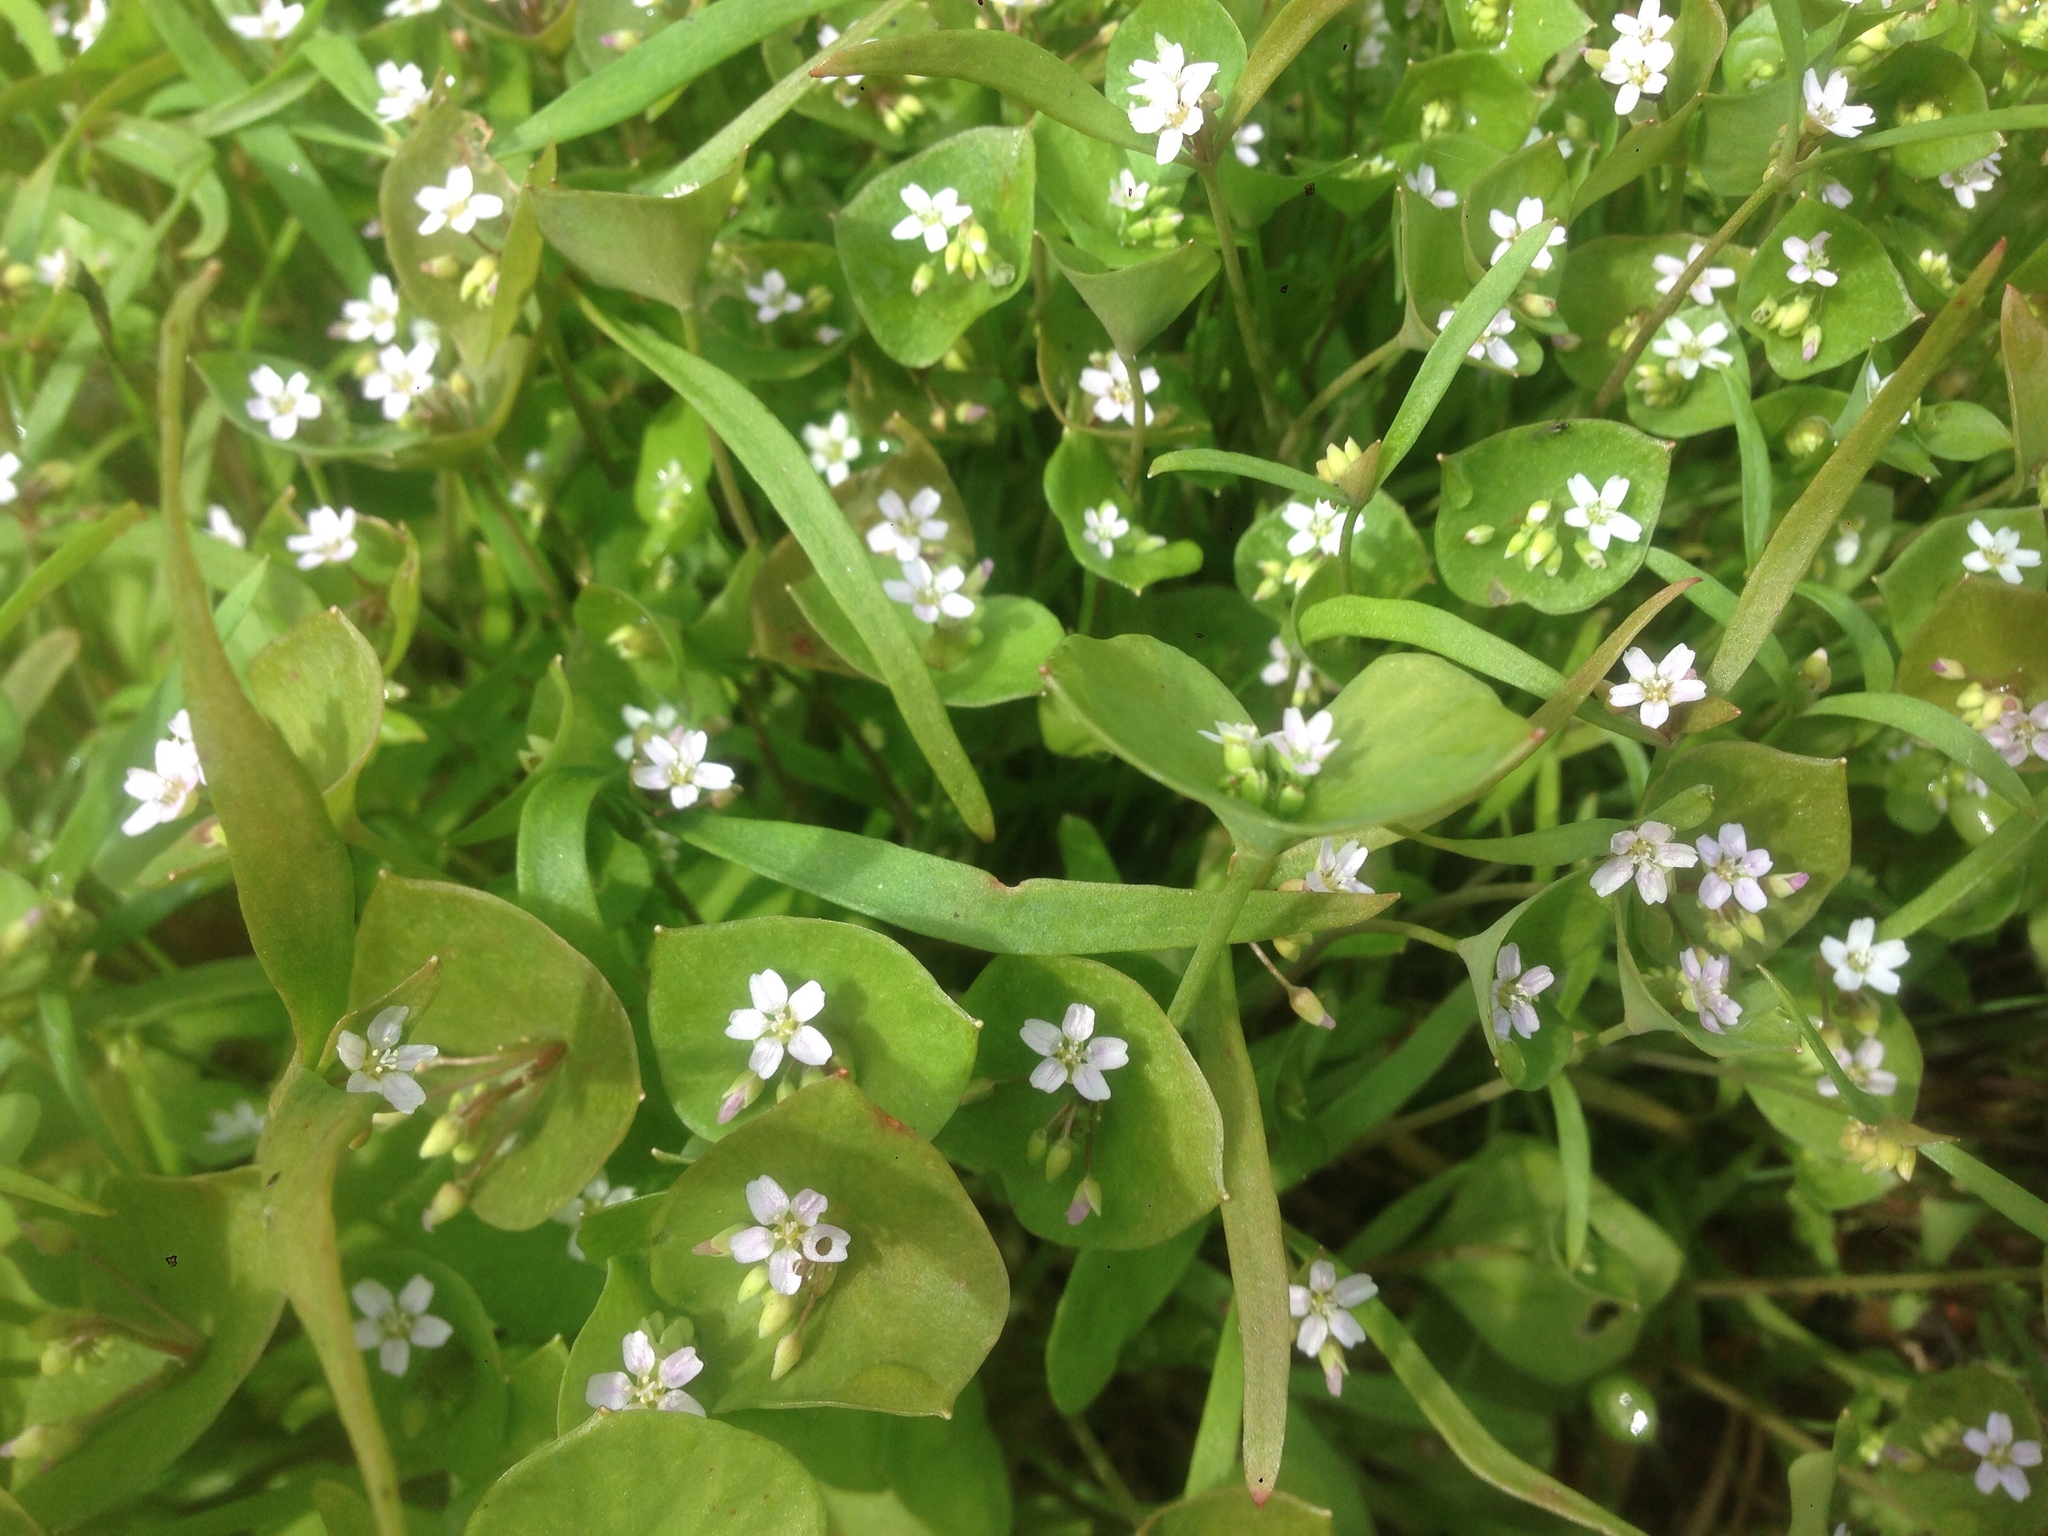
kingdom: Plantae
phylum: Tracheophyta
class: Magnoliopsida
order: Caryophyllales
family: Montiaceae
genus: Claytonia
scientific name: Claytonia parviflora
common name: Indian-lettuce
